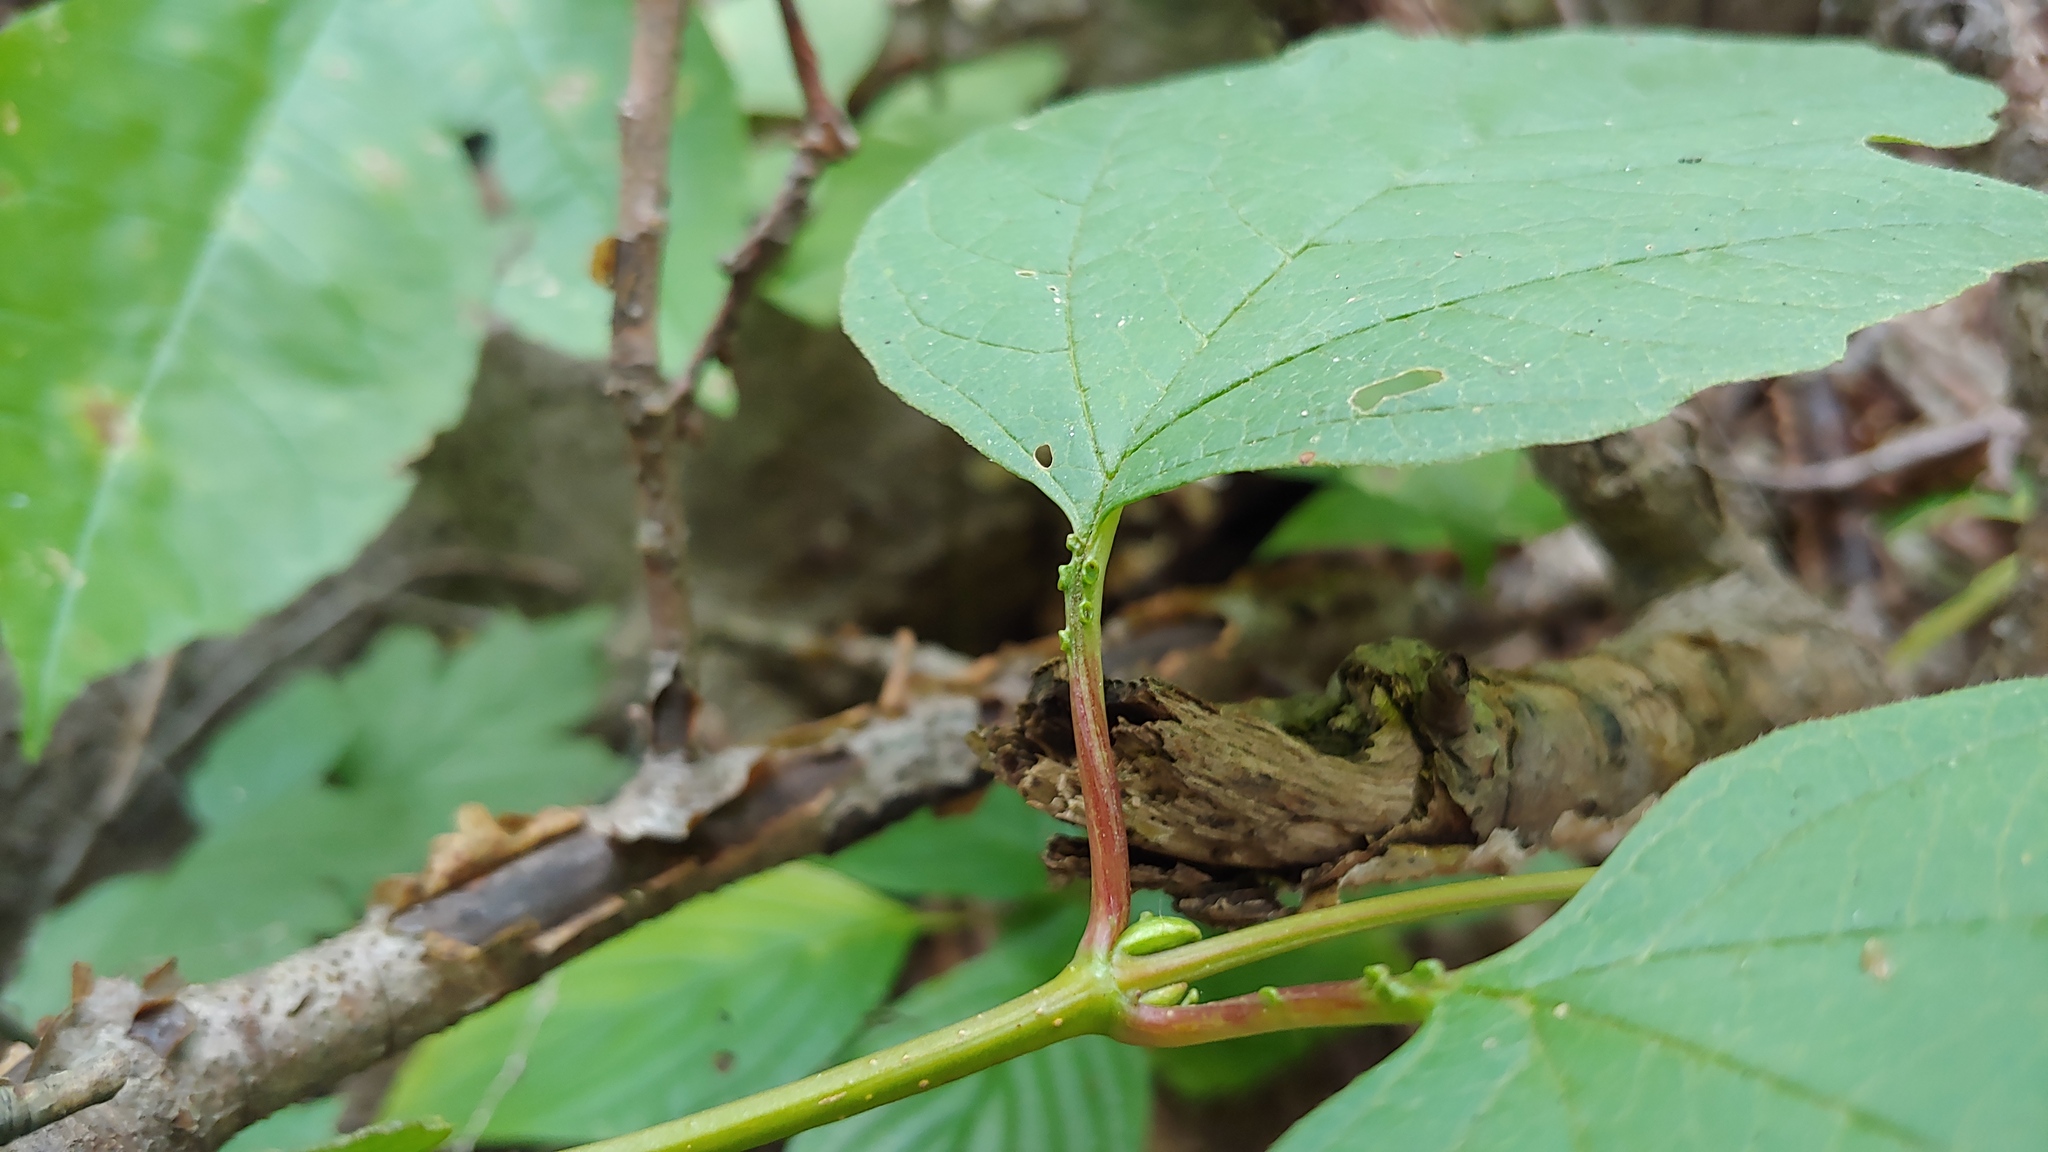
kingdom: Plantae
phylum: Tracheophyta
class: Magnoliopsida
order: Dipsacales
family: Viburnaceae
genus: Viburnum
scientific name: Viburnum opulus
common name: Guelder-rose
